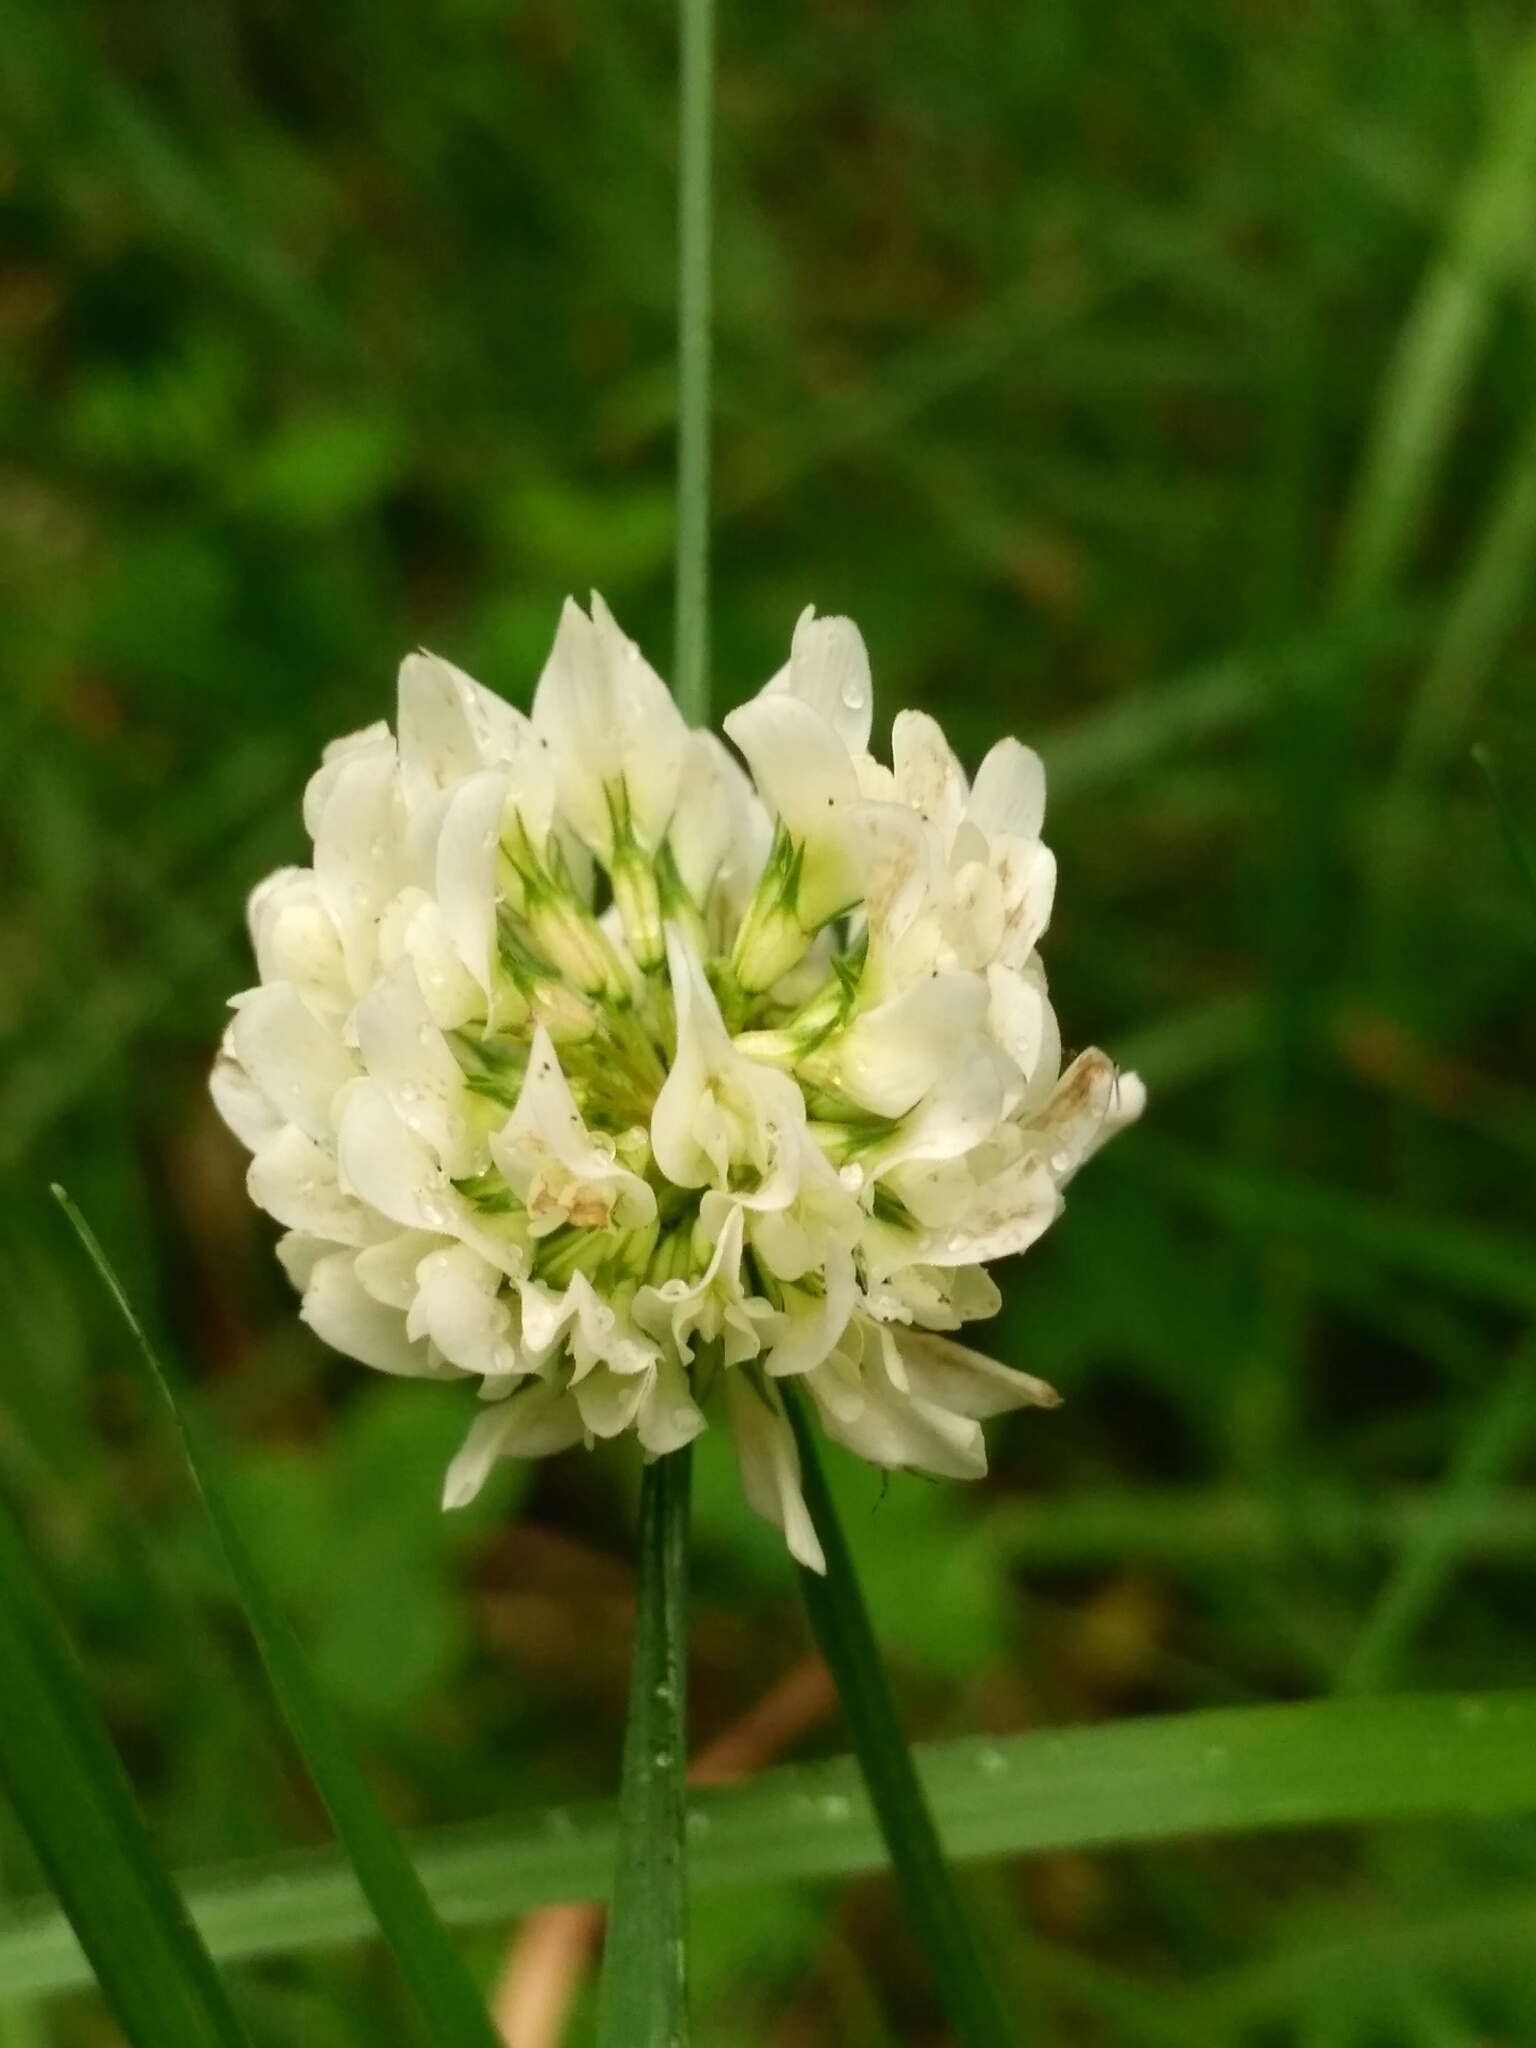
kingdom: Plantae
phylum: Tracheophyta
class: Magnoliopsida
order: Fabales
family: Fabaceae
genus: Trifolium
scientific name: Trifolium repens
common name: White clover
